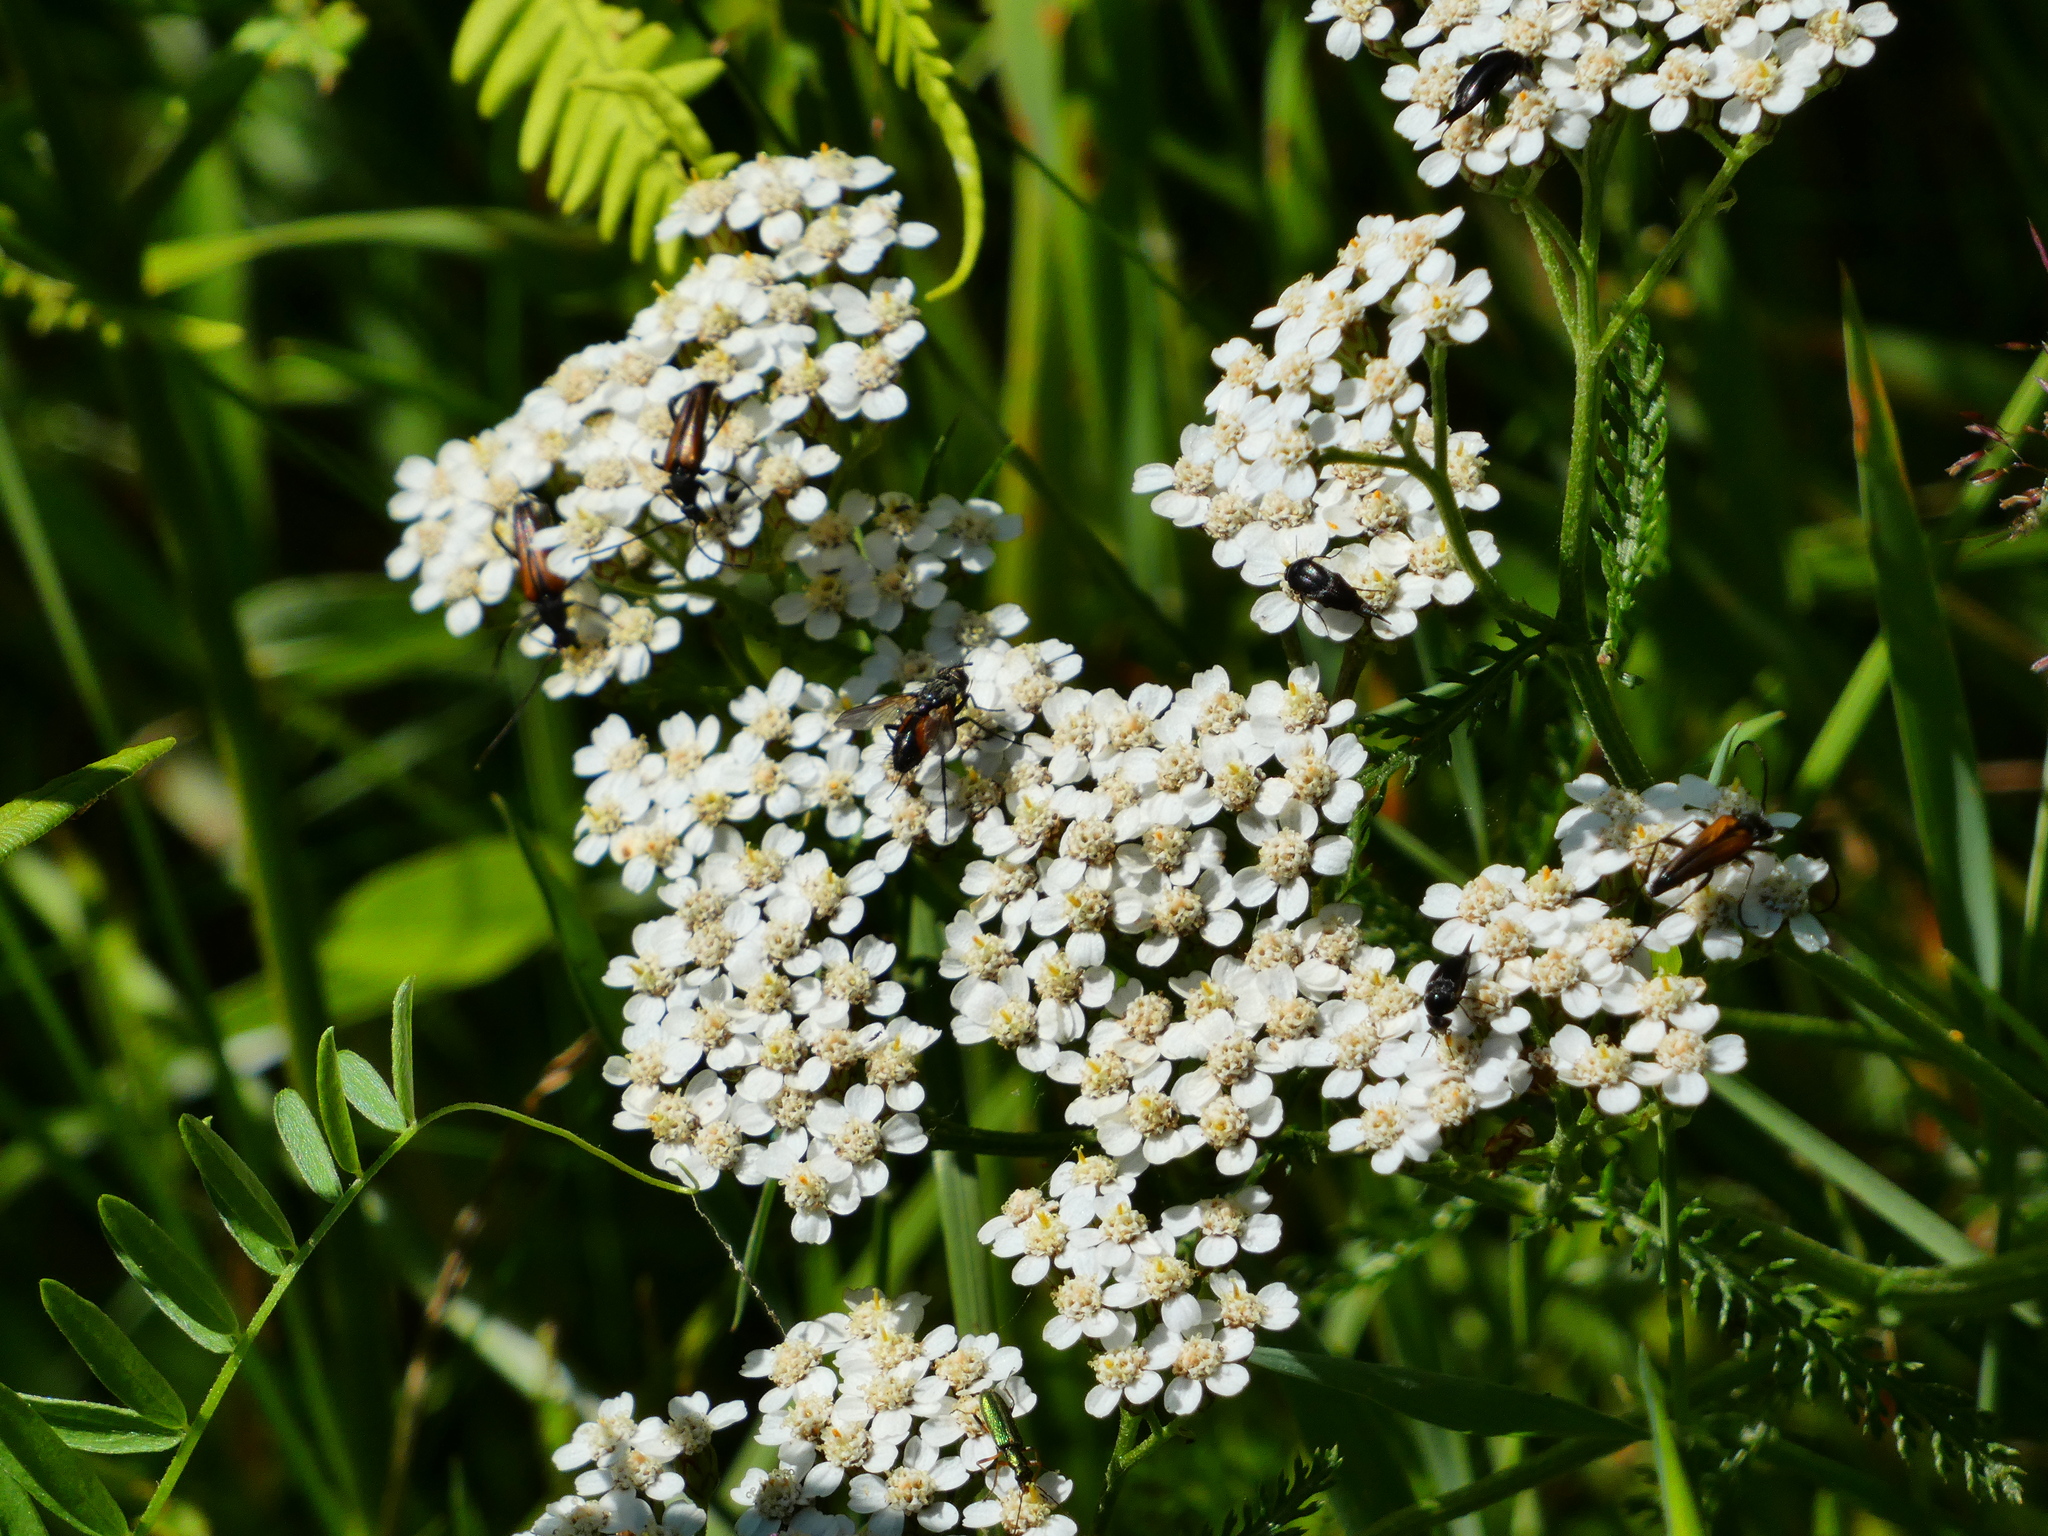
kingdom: Plantae
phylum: Tracheophyta
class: Magnoliopsida
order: Asterales
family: Asteraceae
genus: Achillea
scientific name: Achillea millefolium
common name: Yarrow
